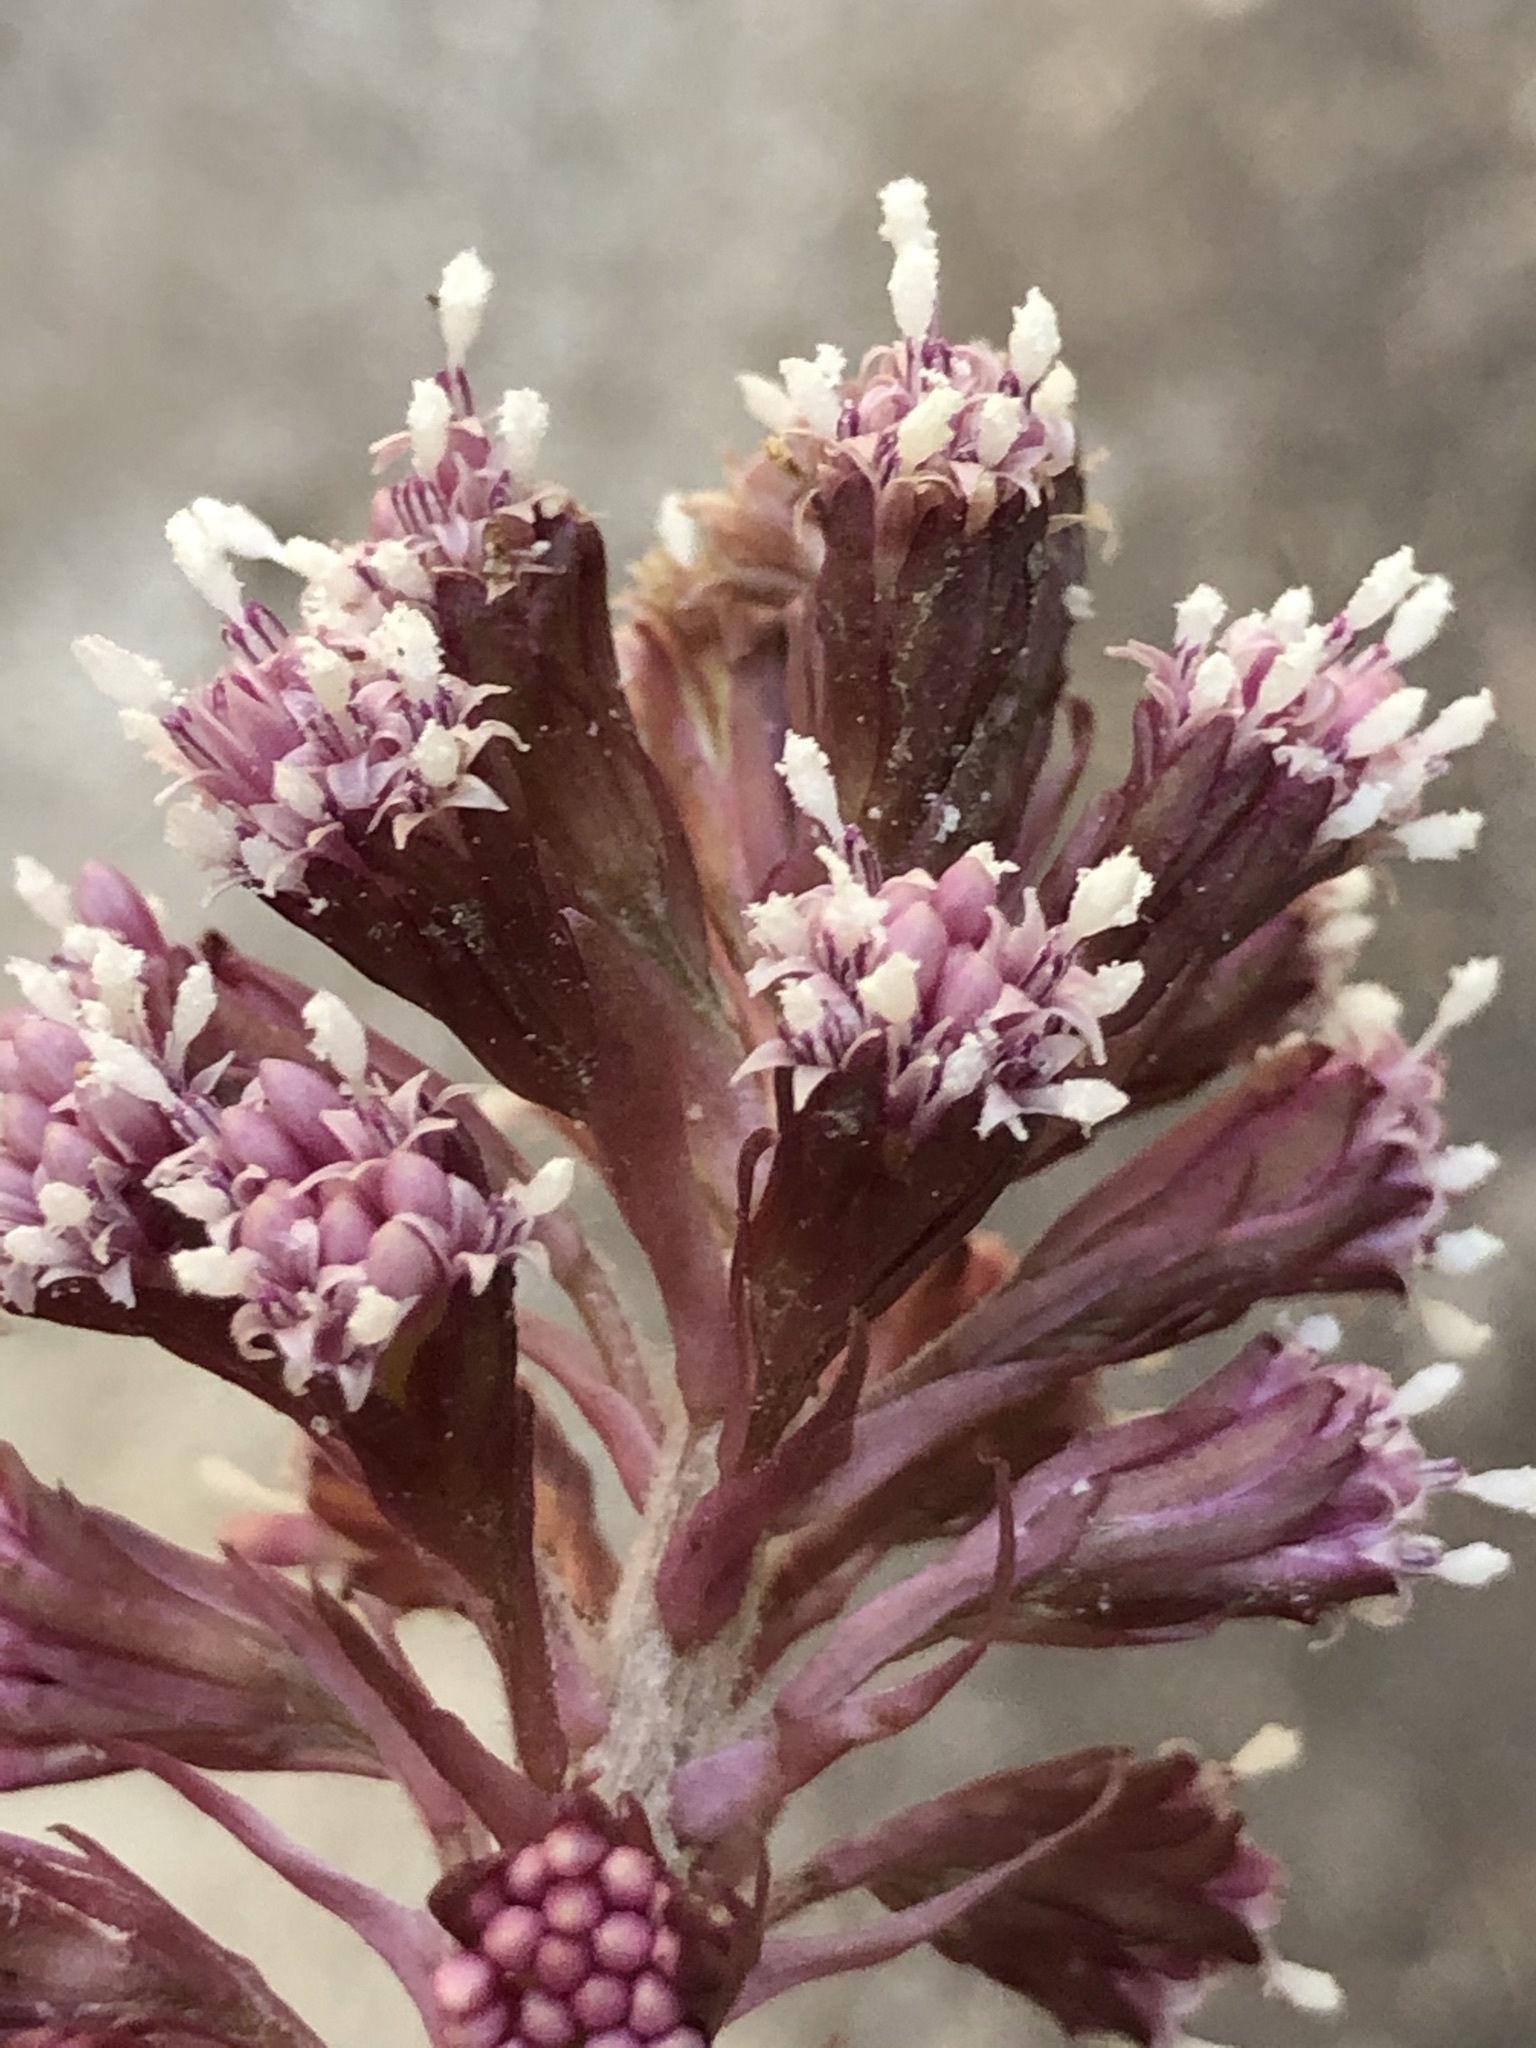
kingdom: Plantae
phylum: Tracheophyta
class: Magnoliopsida
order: Asterales
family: Asteraceae
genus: Petasites
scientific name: Petasites hybridus
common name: Butterbur
